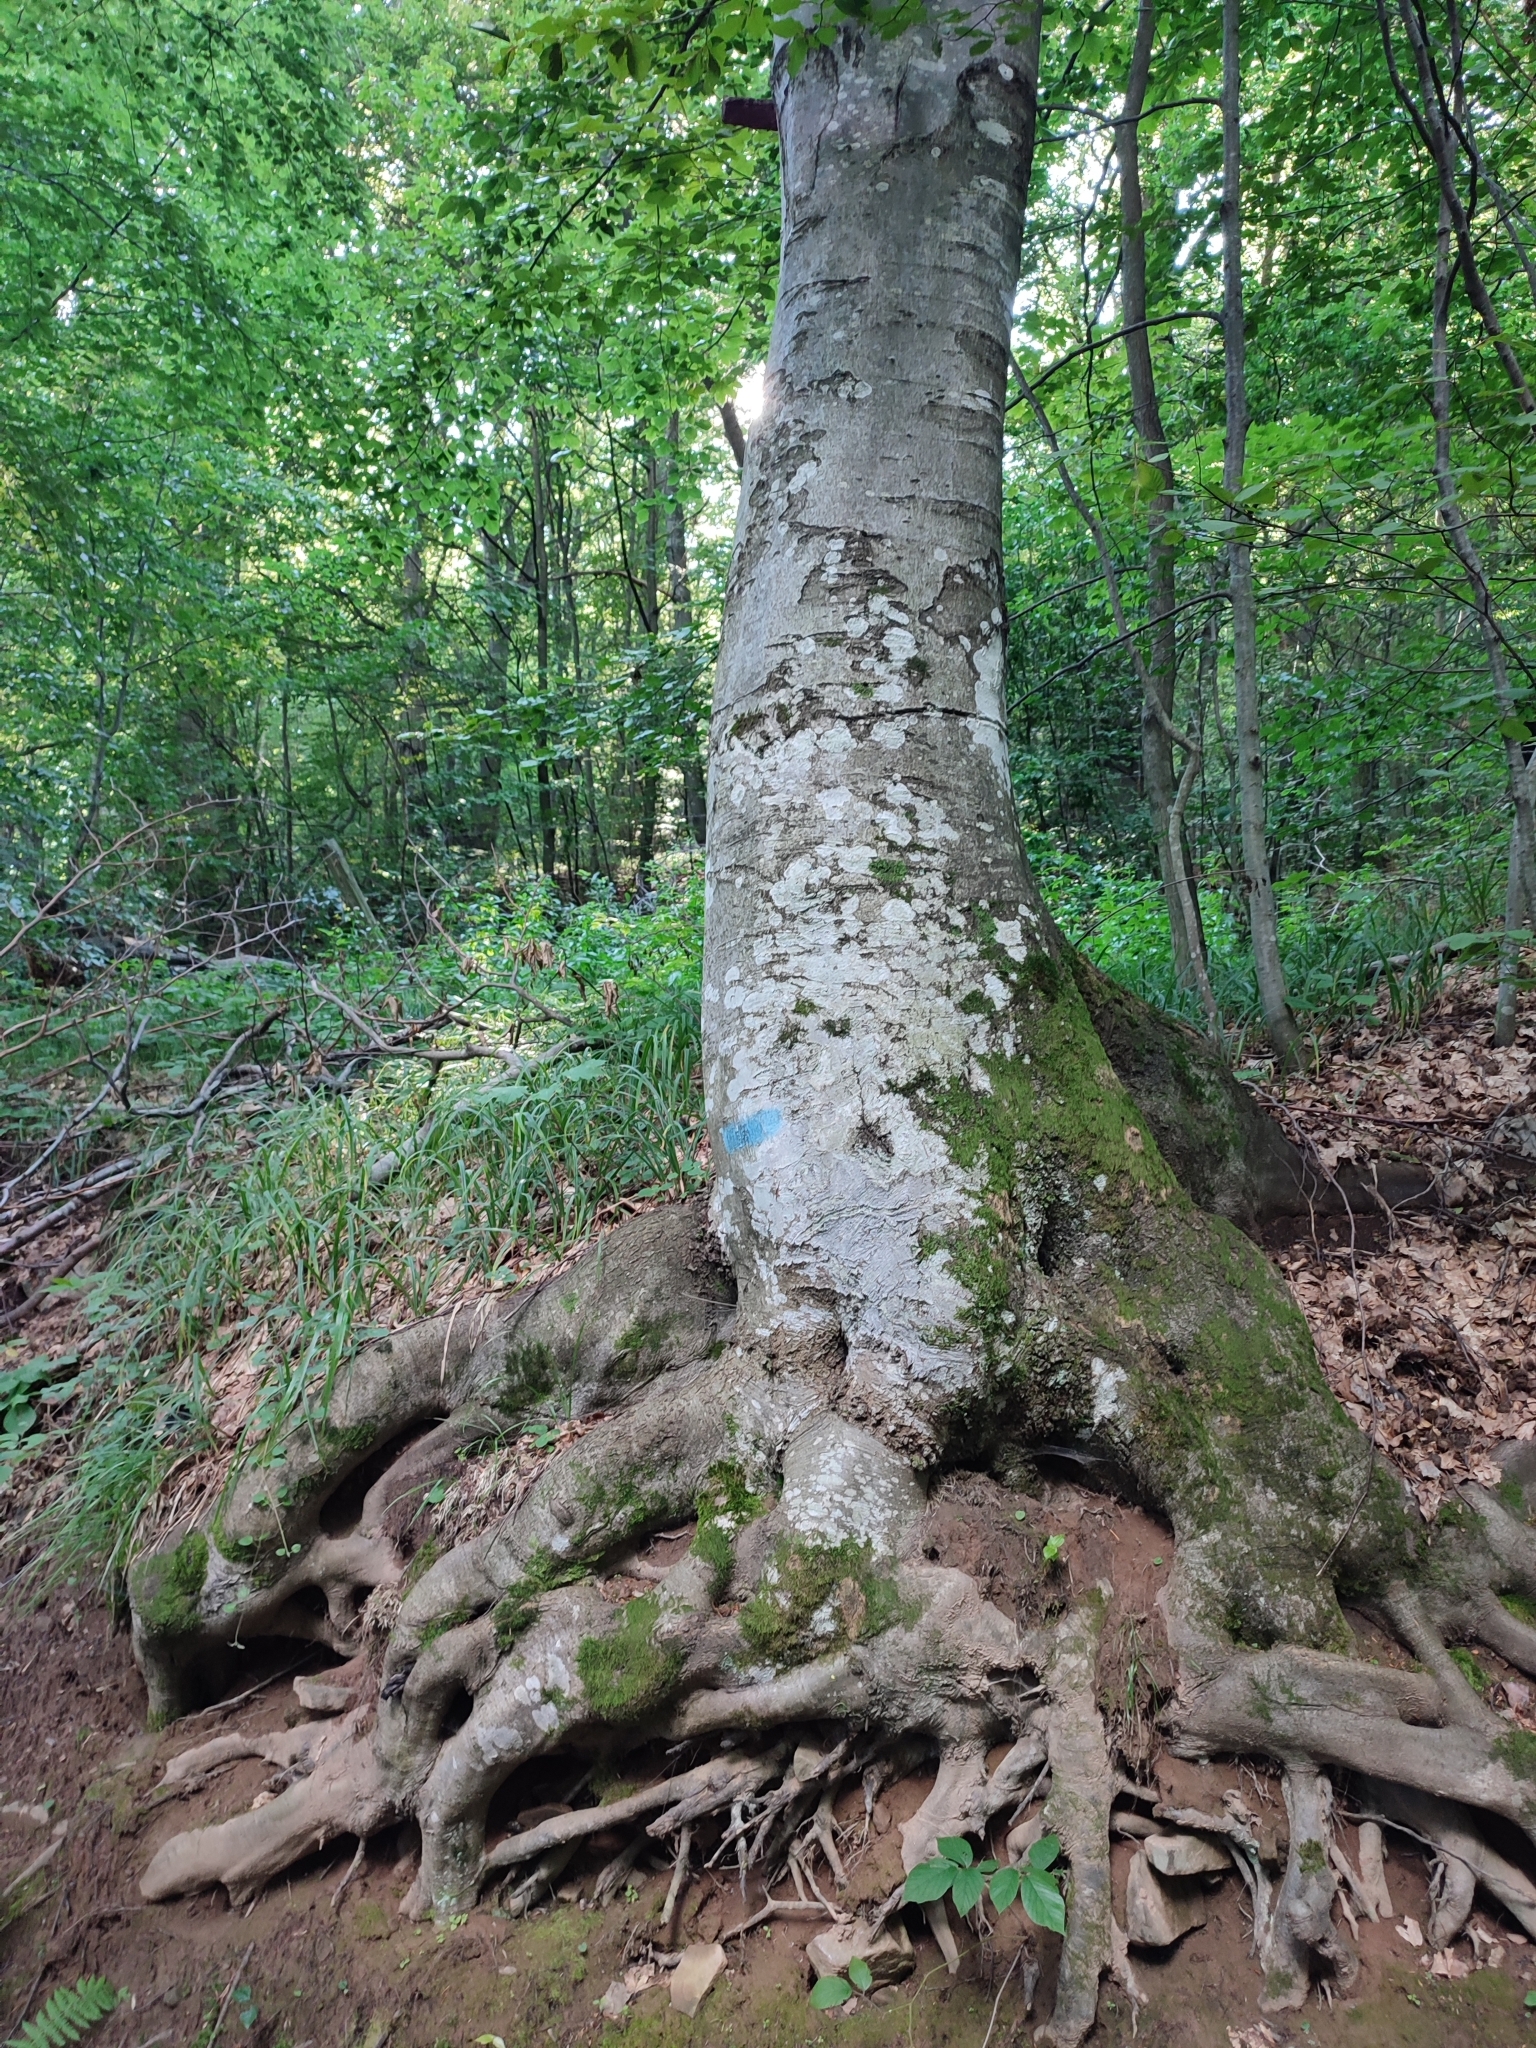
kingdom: Plantae
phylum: Tracheophyta
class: Magnoliopsida
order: Fagales
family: Fagaceae
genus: Fagus
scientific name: Fagus sylvatica
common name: Beech
